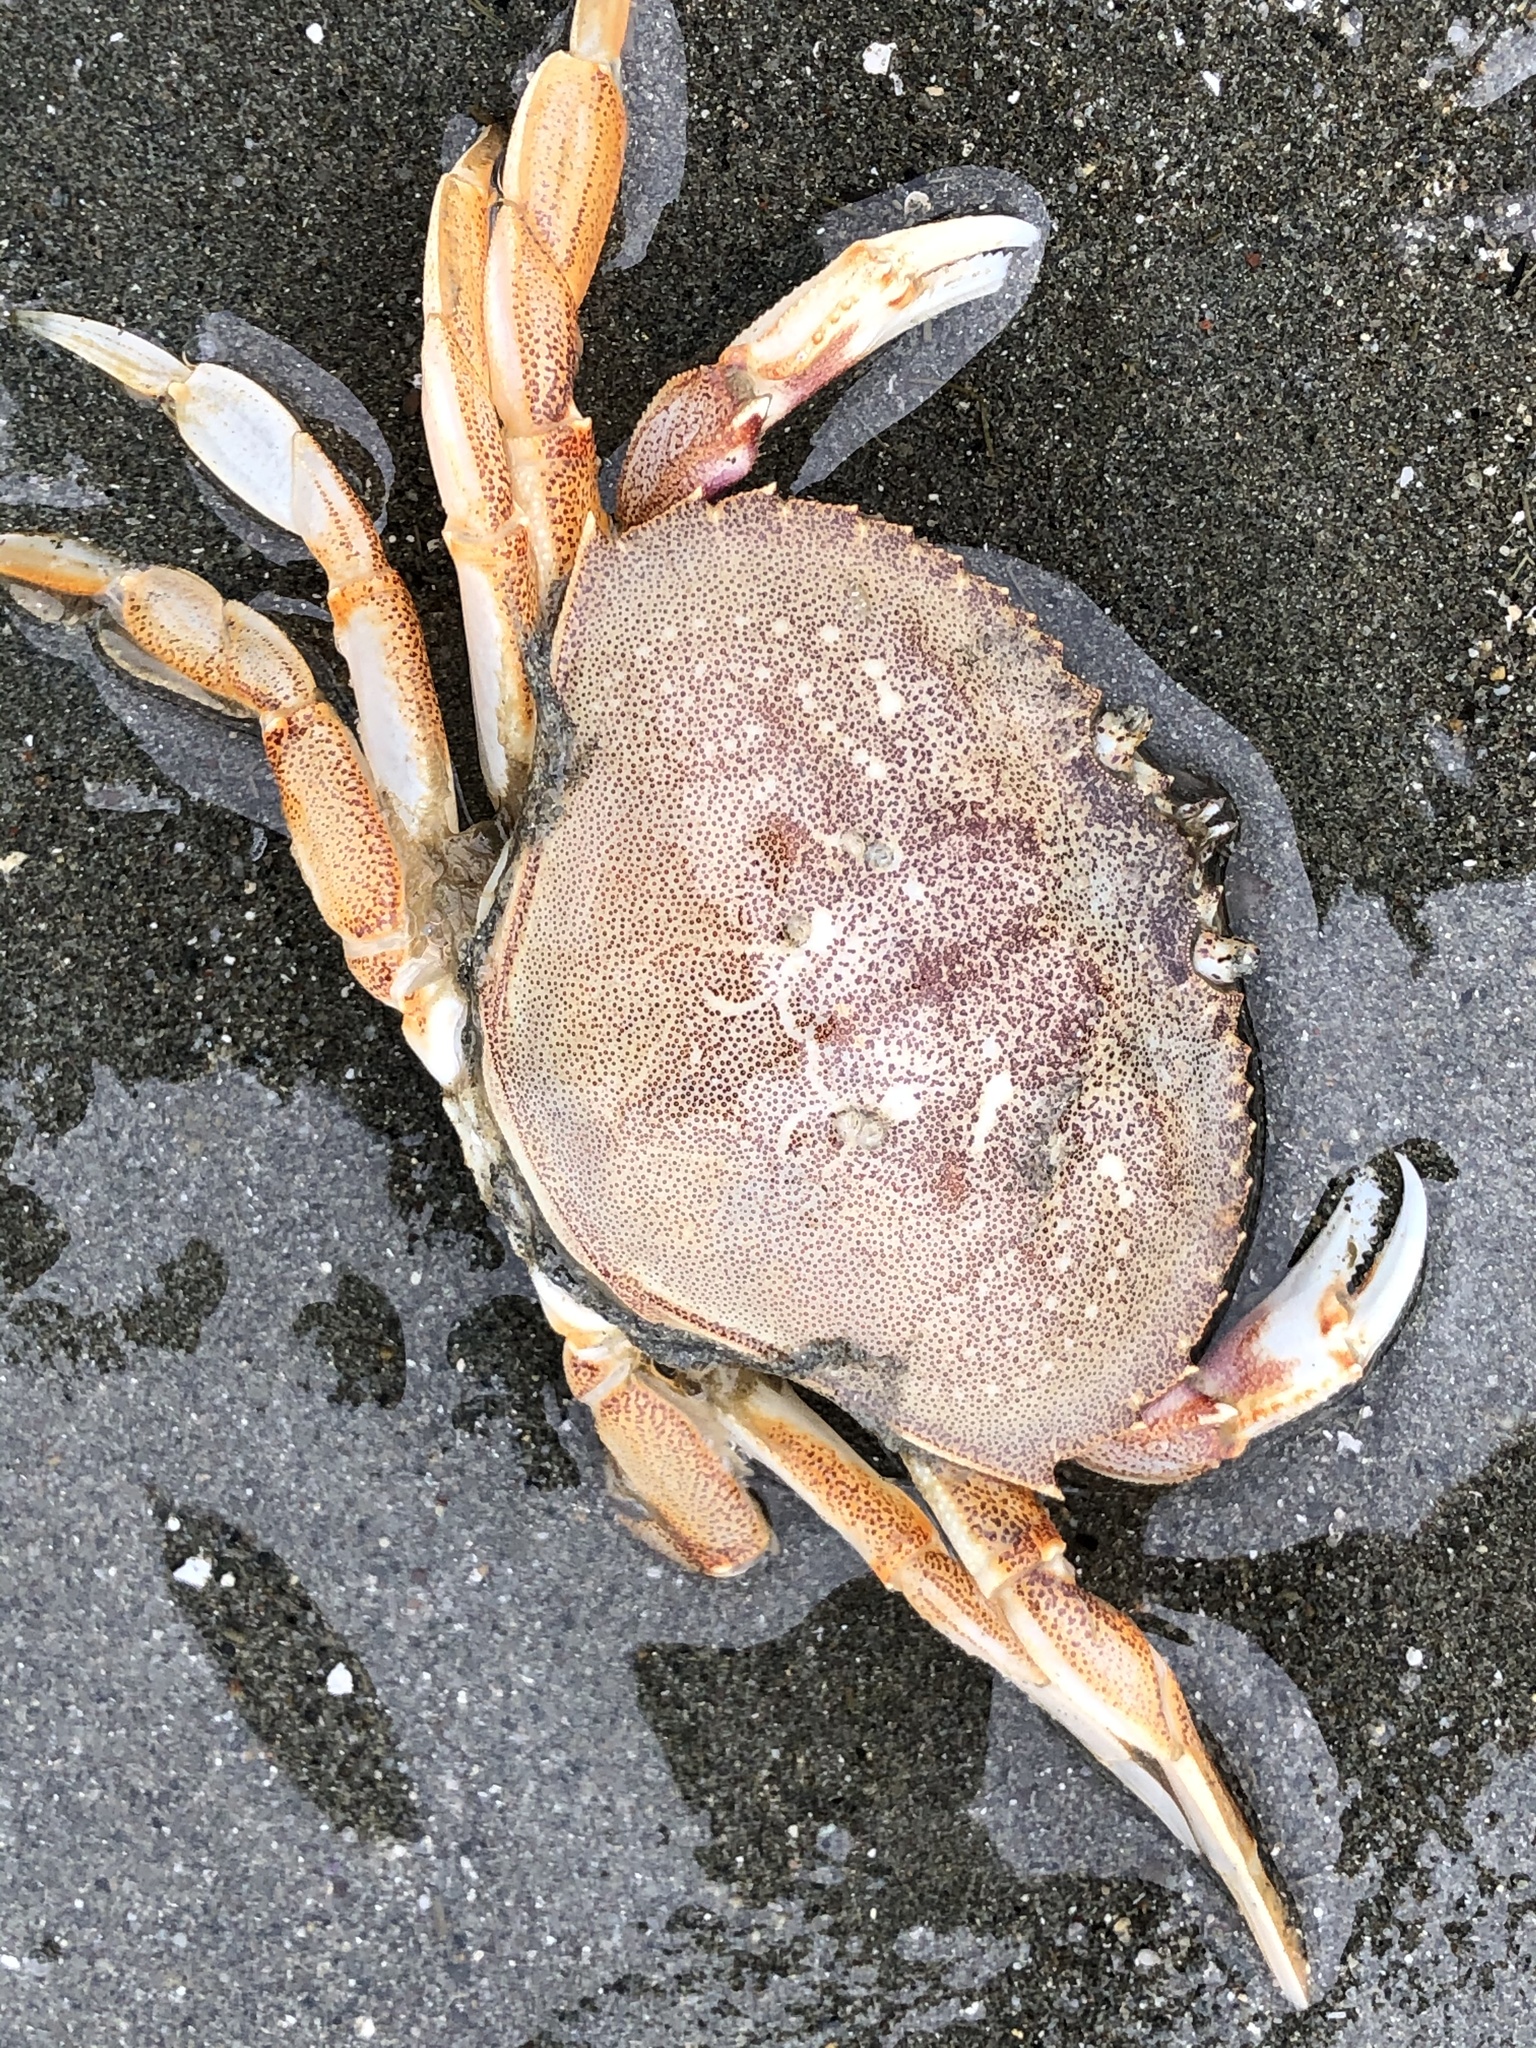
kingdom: Animalia
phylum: Arthropoda
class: Malacostraca
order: Decapoda
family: Cancridae
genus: Metacarcinus
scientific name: Metacarcinus magister
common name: Californian crab
